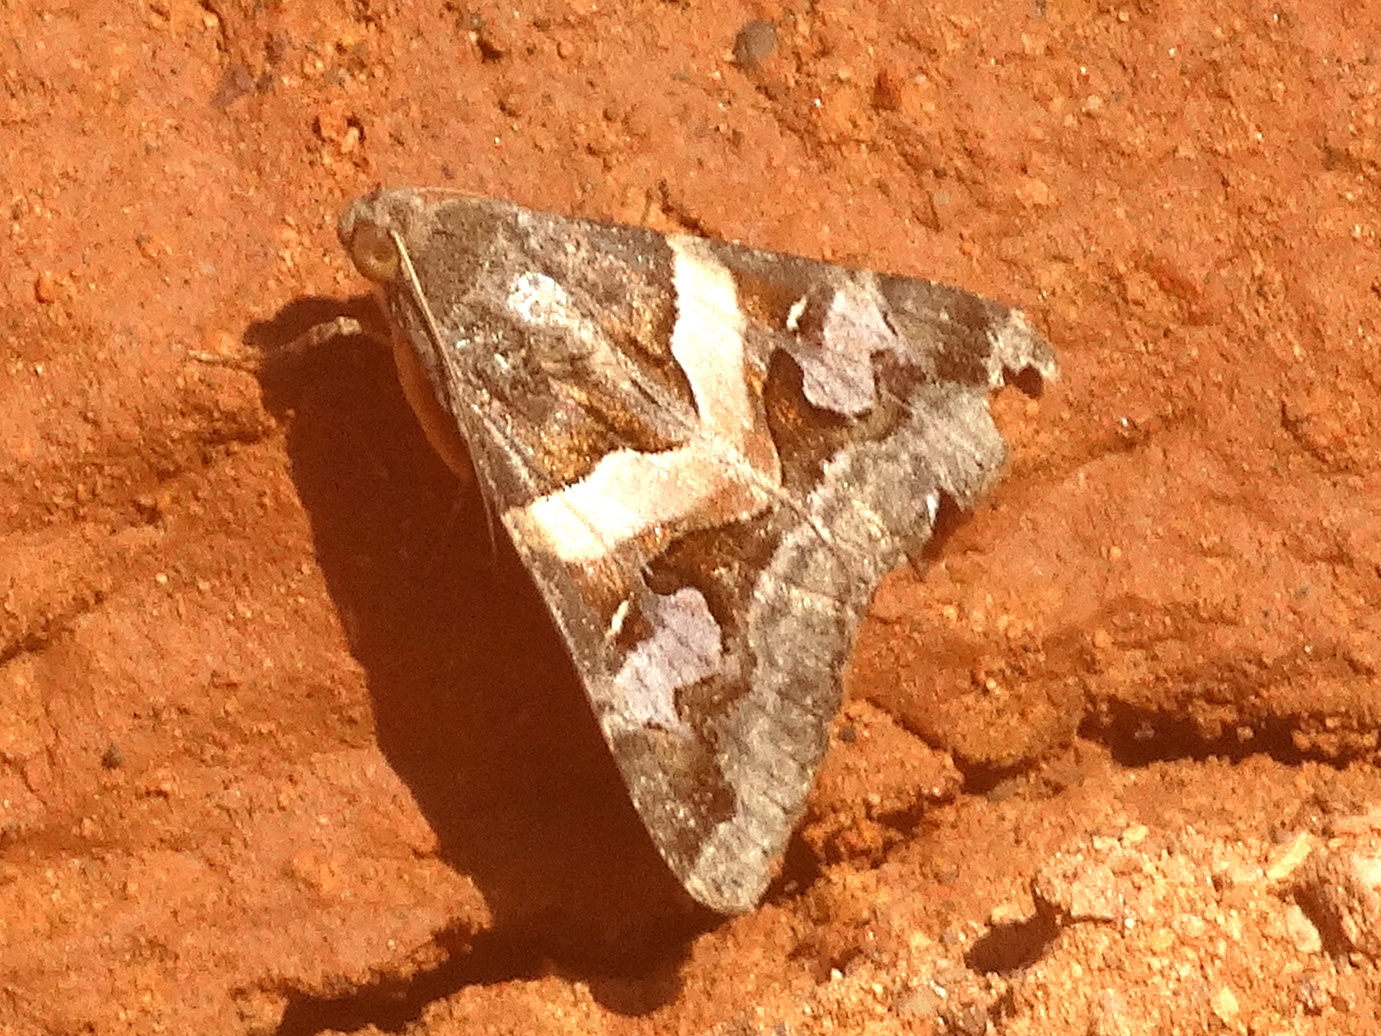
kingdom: Animalia
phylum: Arthropoda
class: Insecta
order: Lepidoptera
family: Erebidae
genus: Melipotis
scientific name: Melipotis indomita
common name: Moth
